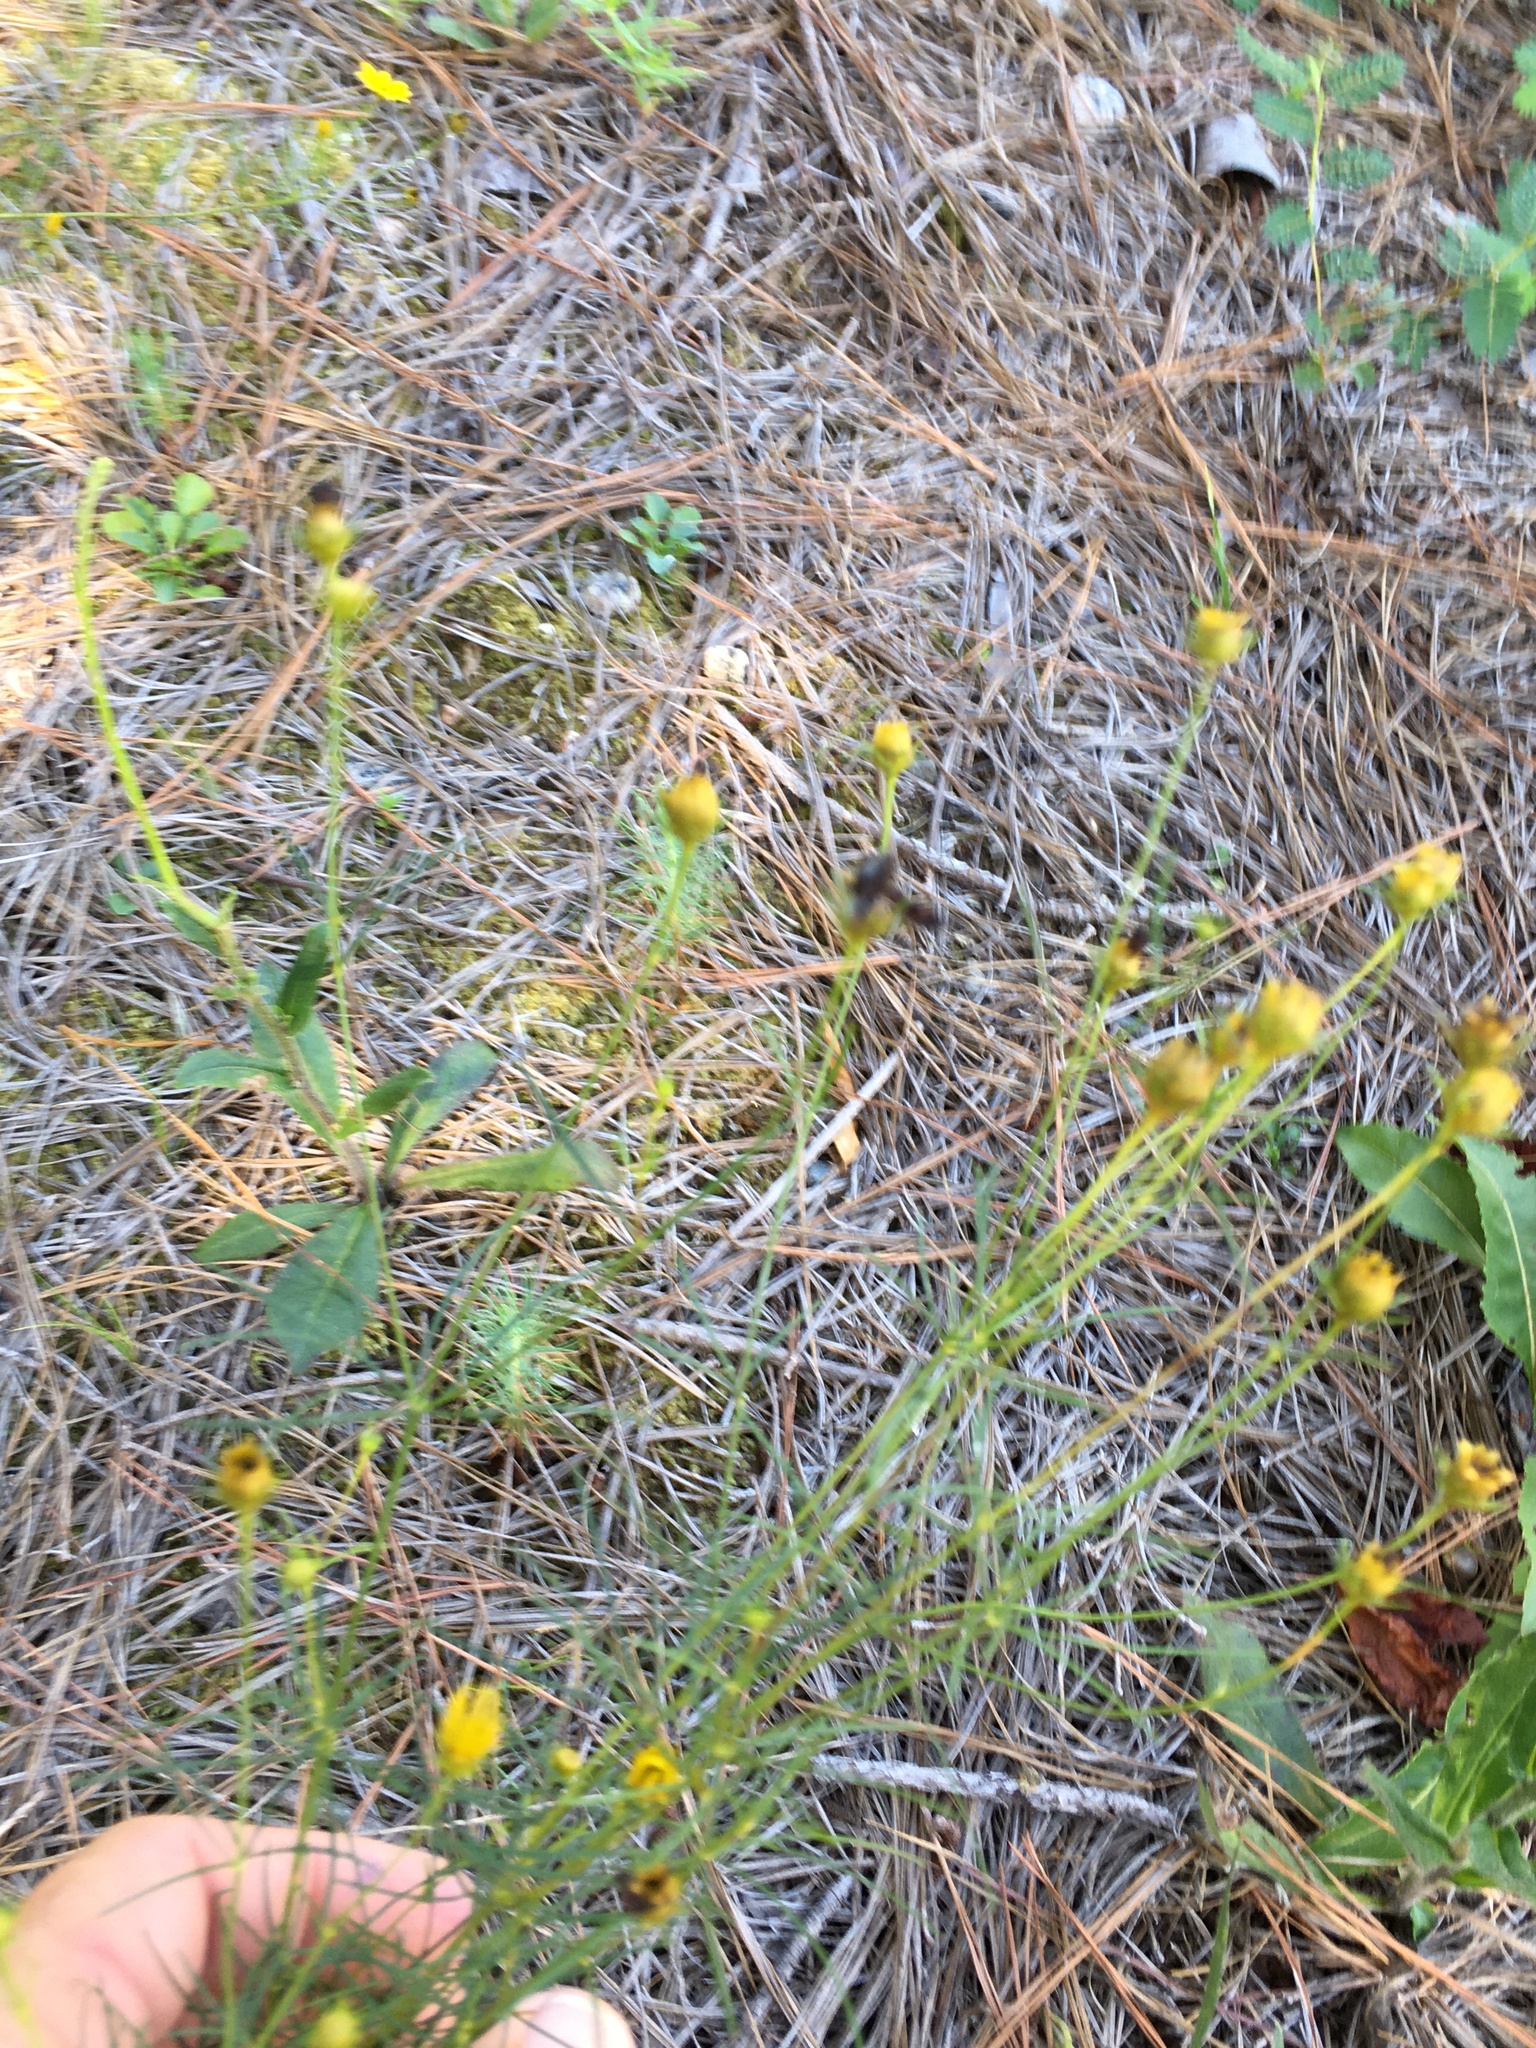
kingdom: Plantae
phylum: Tracheophyta
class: Magnoliopsida
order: Asterales
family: Asteraceae
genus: Coreopsis
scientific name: Coreopsis verticillata
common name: Whorled tickseed
